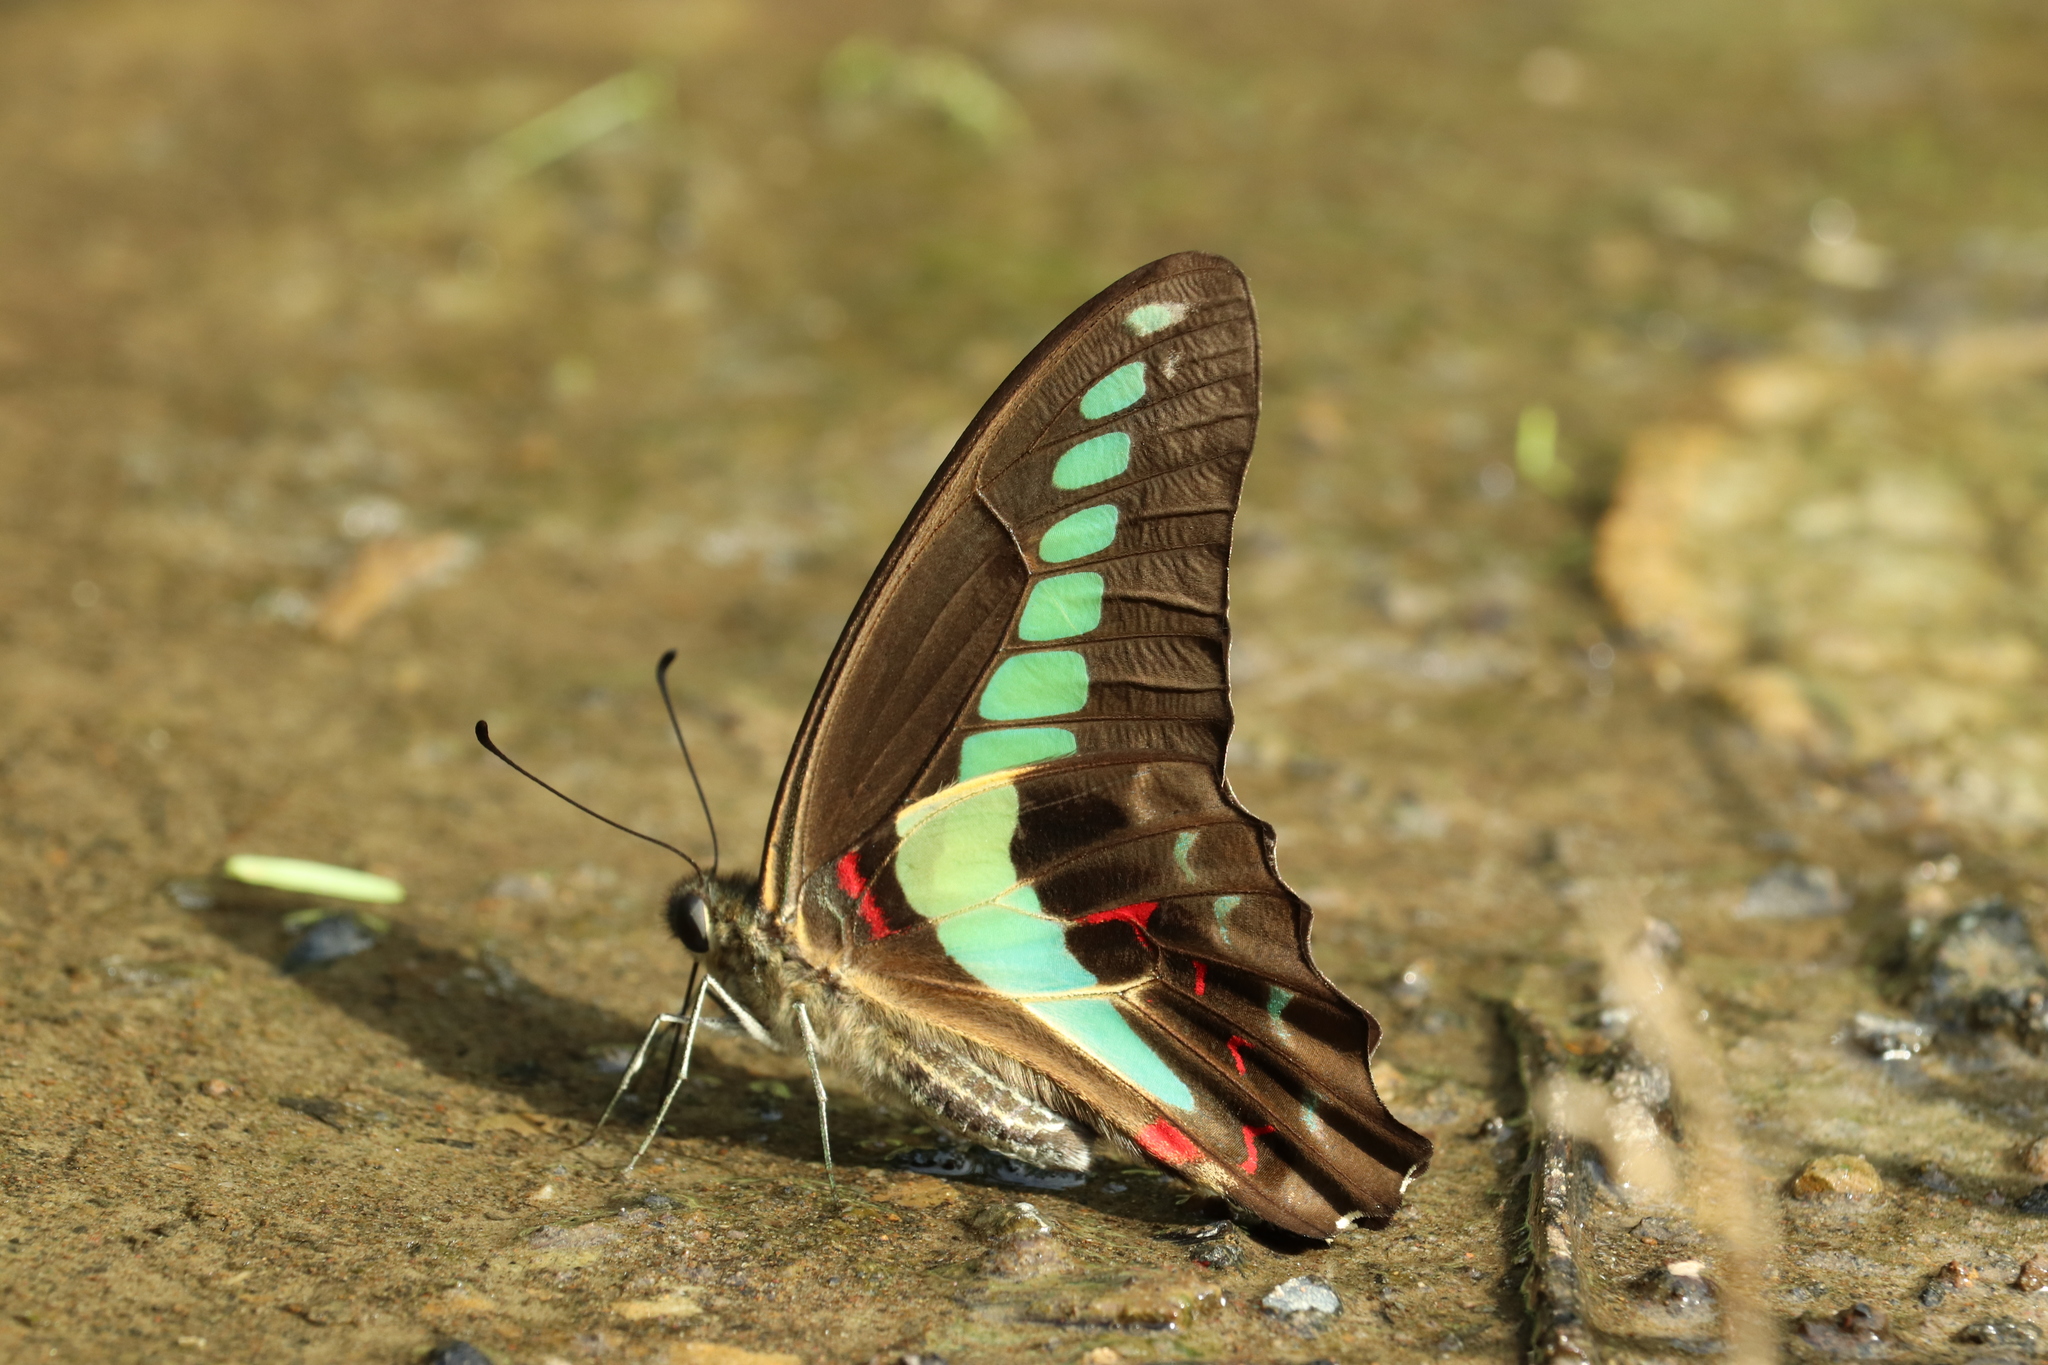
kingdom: Fungi
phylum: Ascomycota
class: Sordariomycetes
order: Microascales
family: Microascaceae
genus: Graphium
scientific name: Graphium sarpedon
